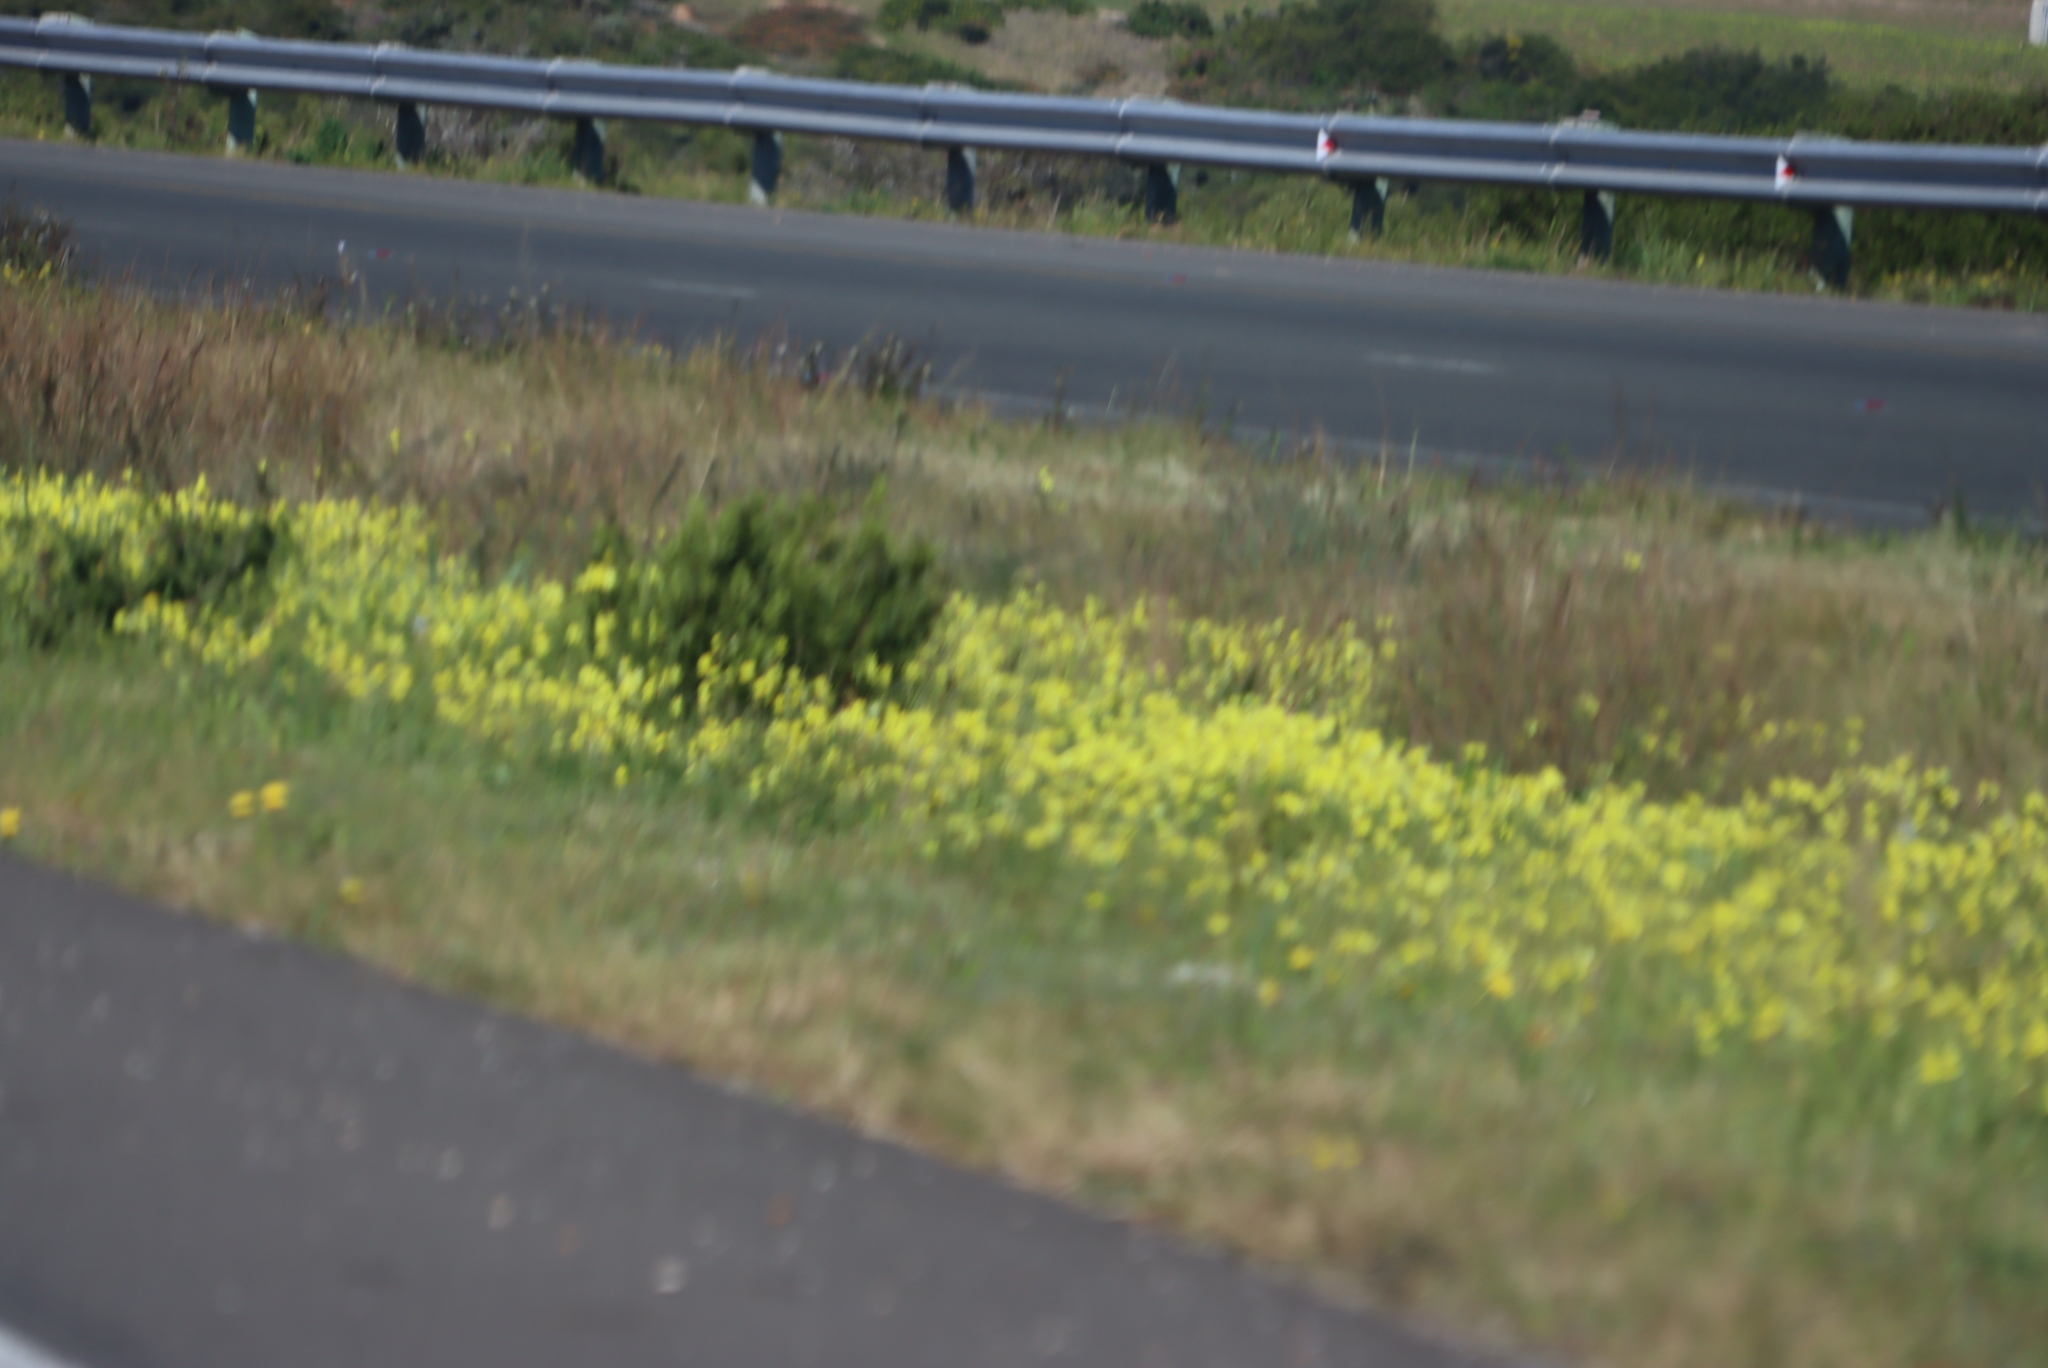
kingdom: Plantae
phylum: Tracheophyta
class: Magnoliopsida
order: Oxalidales
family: Oxalidaceae
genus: Oxalis
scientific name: Oxalis pes-caprae
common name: Bermuda-buttercup
